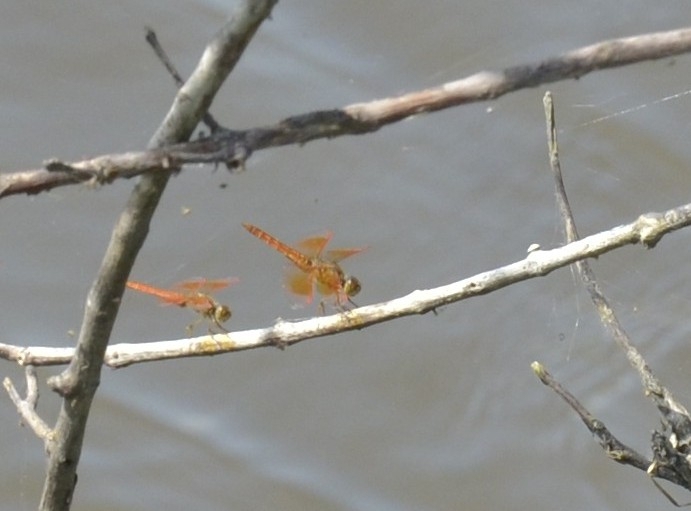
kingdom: Animalia
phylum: Arthropoda
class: Insecta
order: Odonata
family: Libellulidae
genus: Brachythemis
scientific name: Brachythemis contaminata
